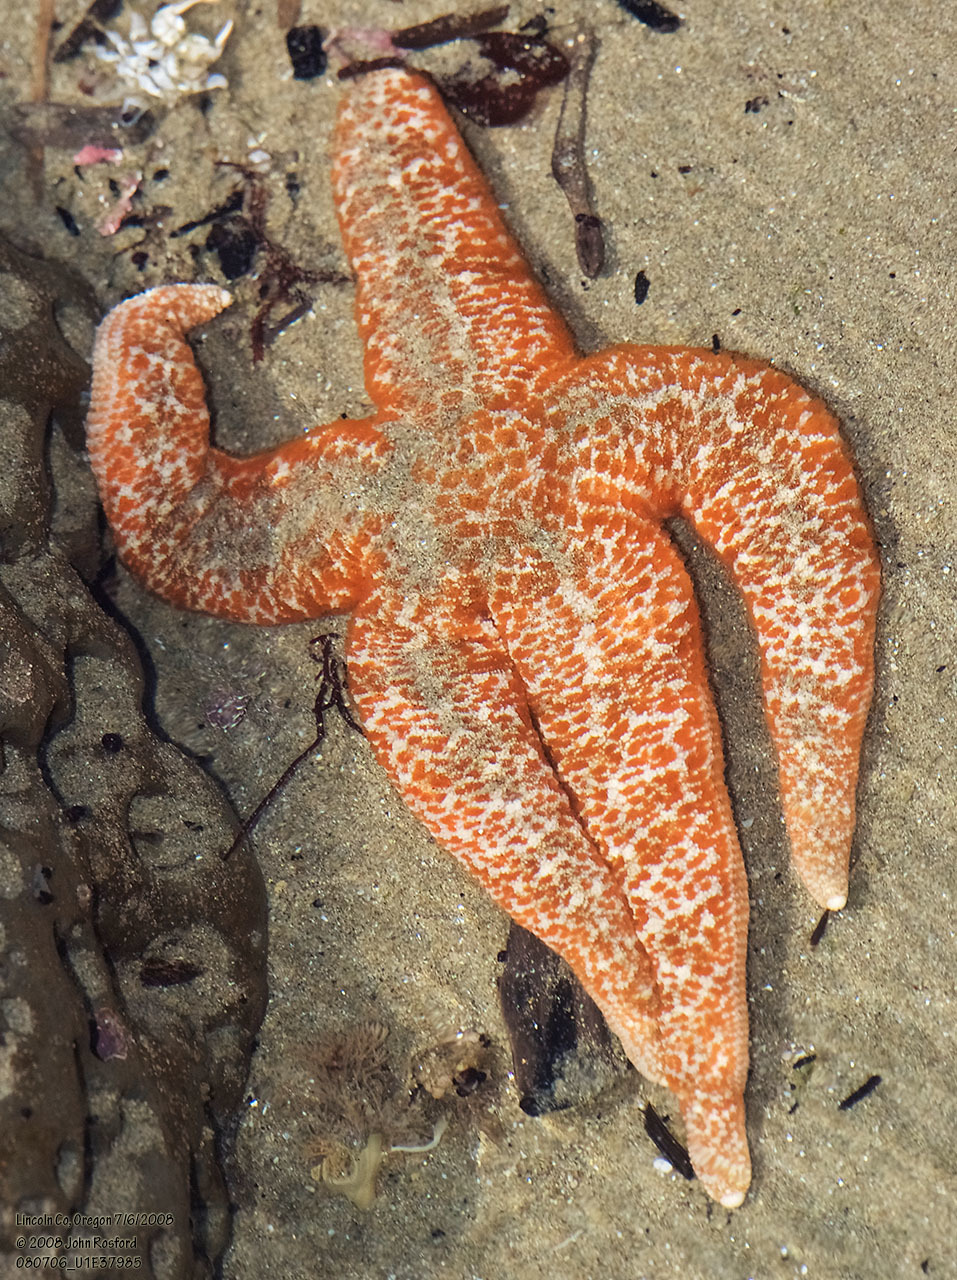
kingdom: Animalia
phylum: Echinodermata
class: Asteroidea
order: Forcipulatida
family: Asteriidae
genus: Evasterias
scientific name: Evasterias troschelii
